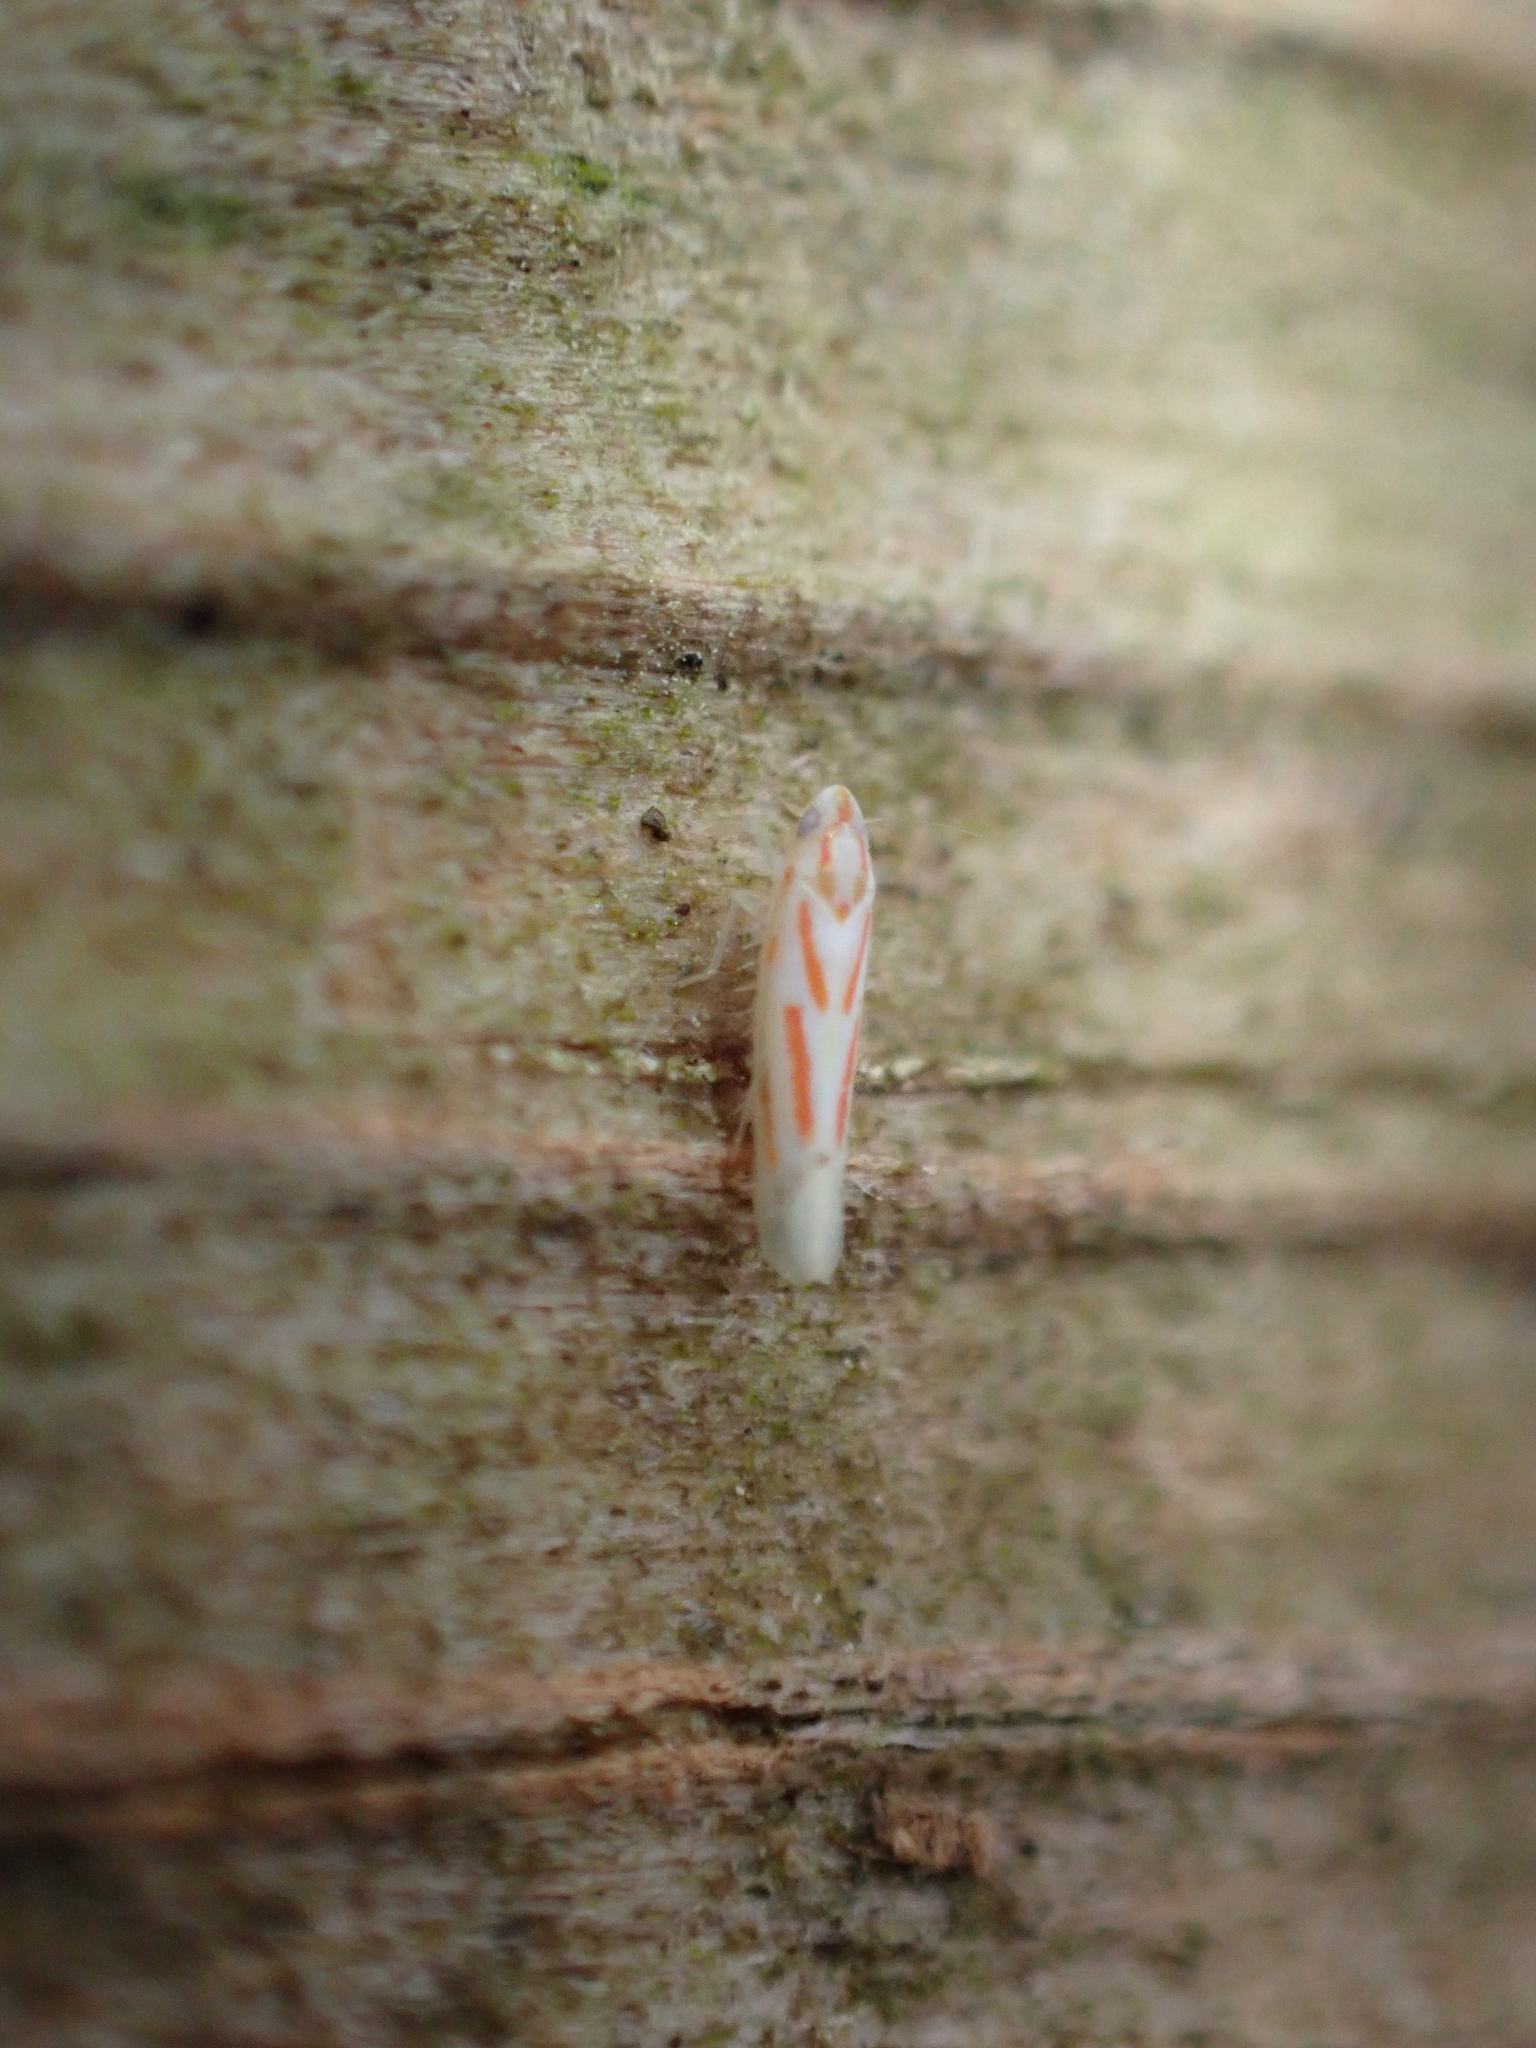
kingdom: Animalia
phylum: Arthropoda
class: Insecta
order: Hemiptera
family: Cicadellidae
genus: Dikrella
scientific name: Dikrella cruentata
